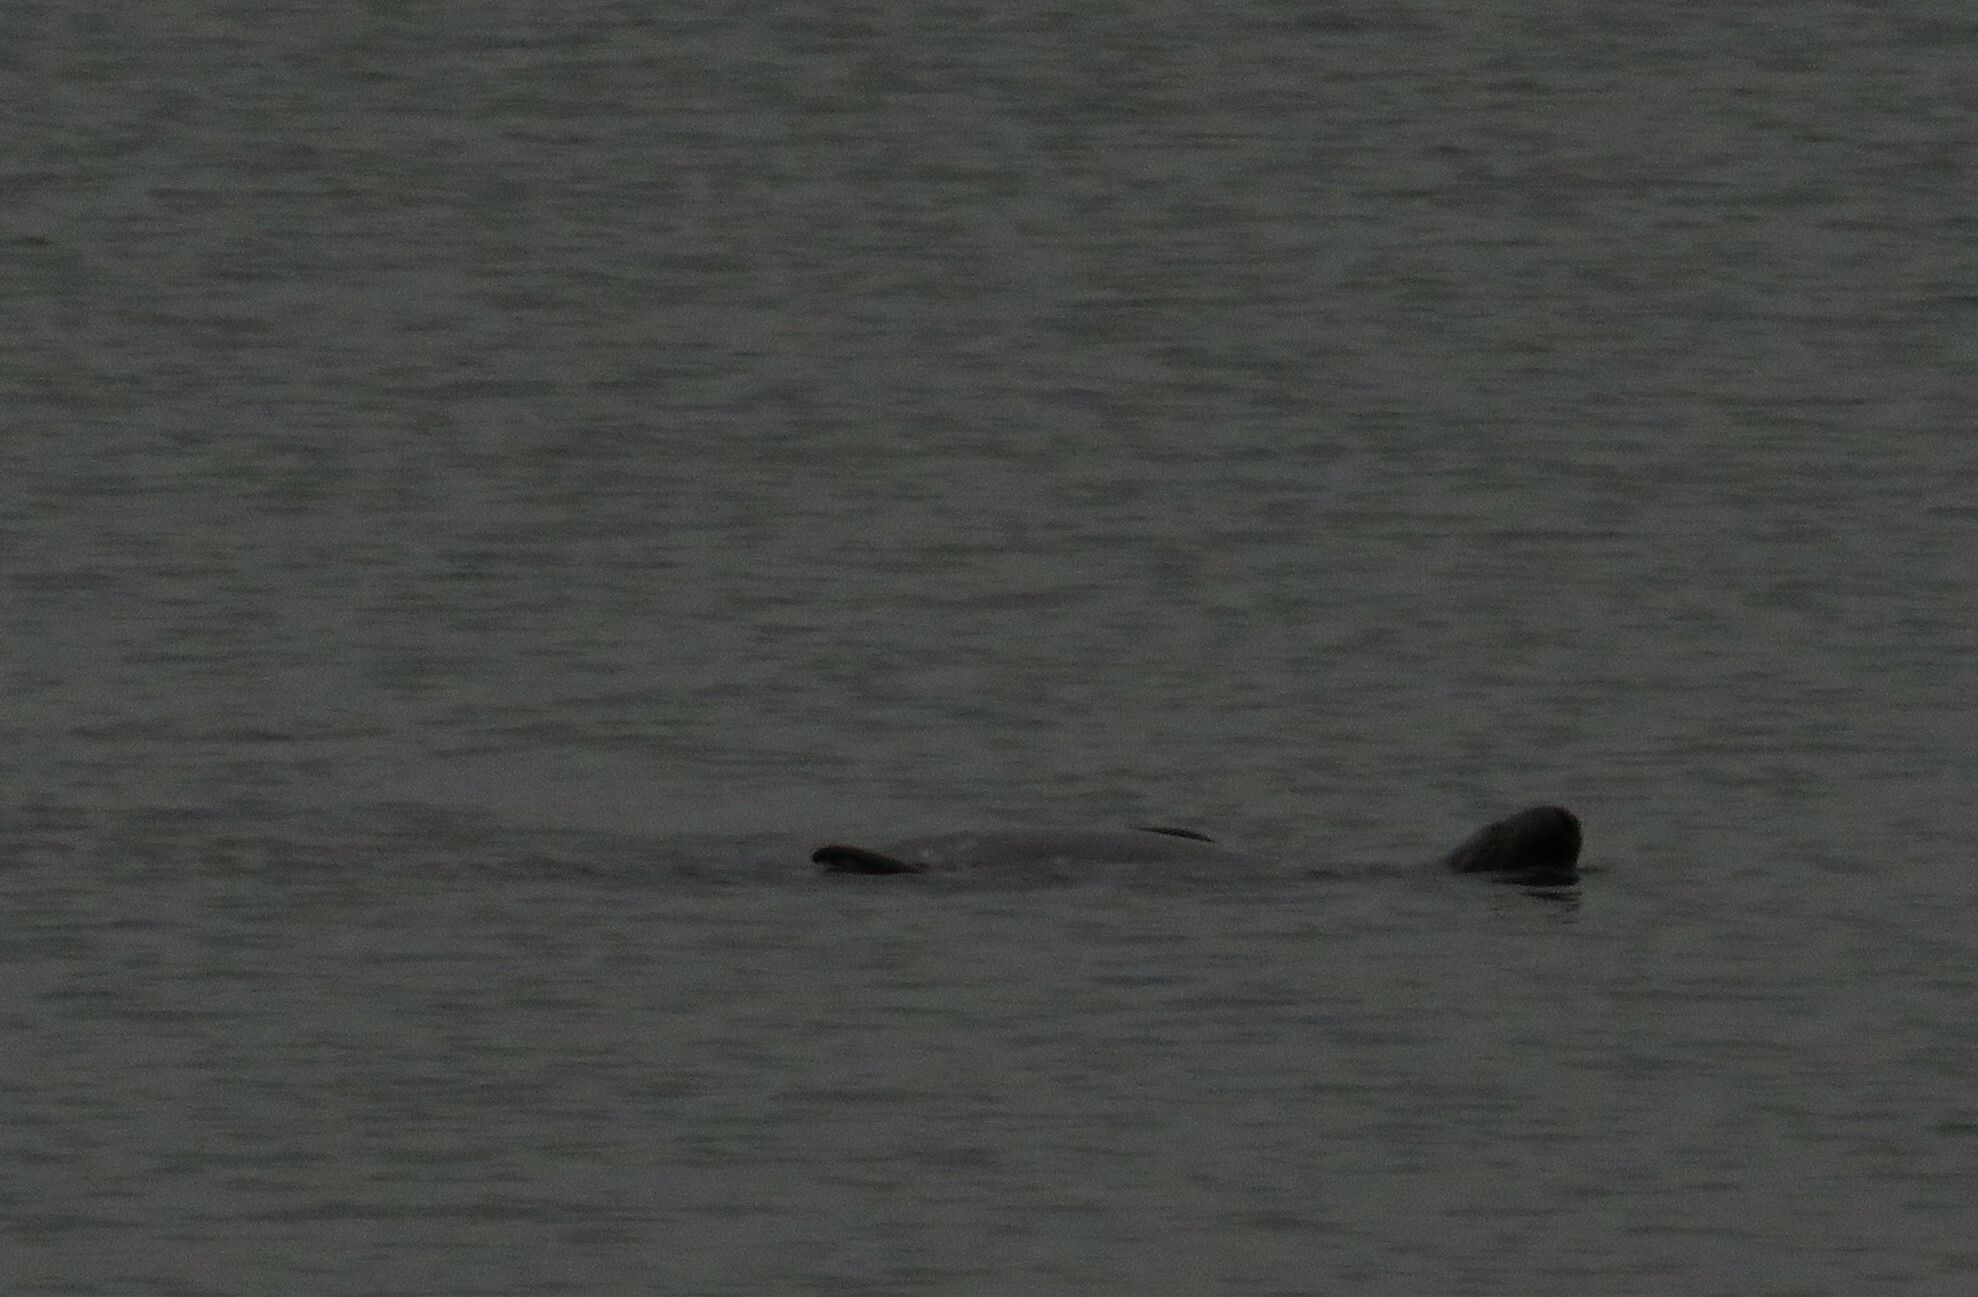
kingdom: Animalia
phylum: Chordata
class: Mammalia
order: Carnivora
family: Phocidae
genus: Halichoerus
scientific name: Halichoerus grypus
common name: Grey seal
